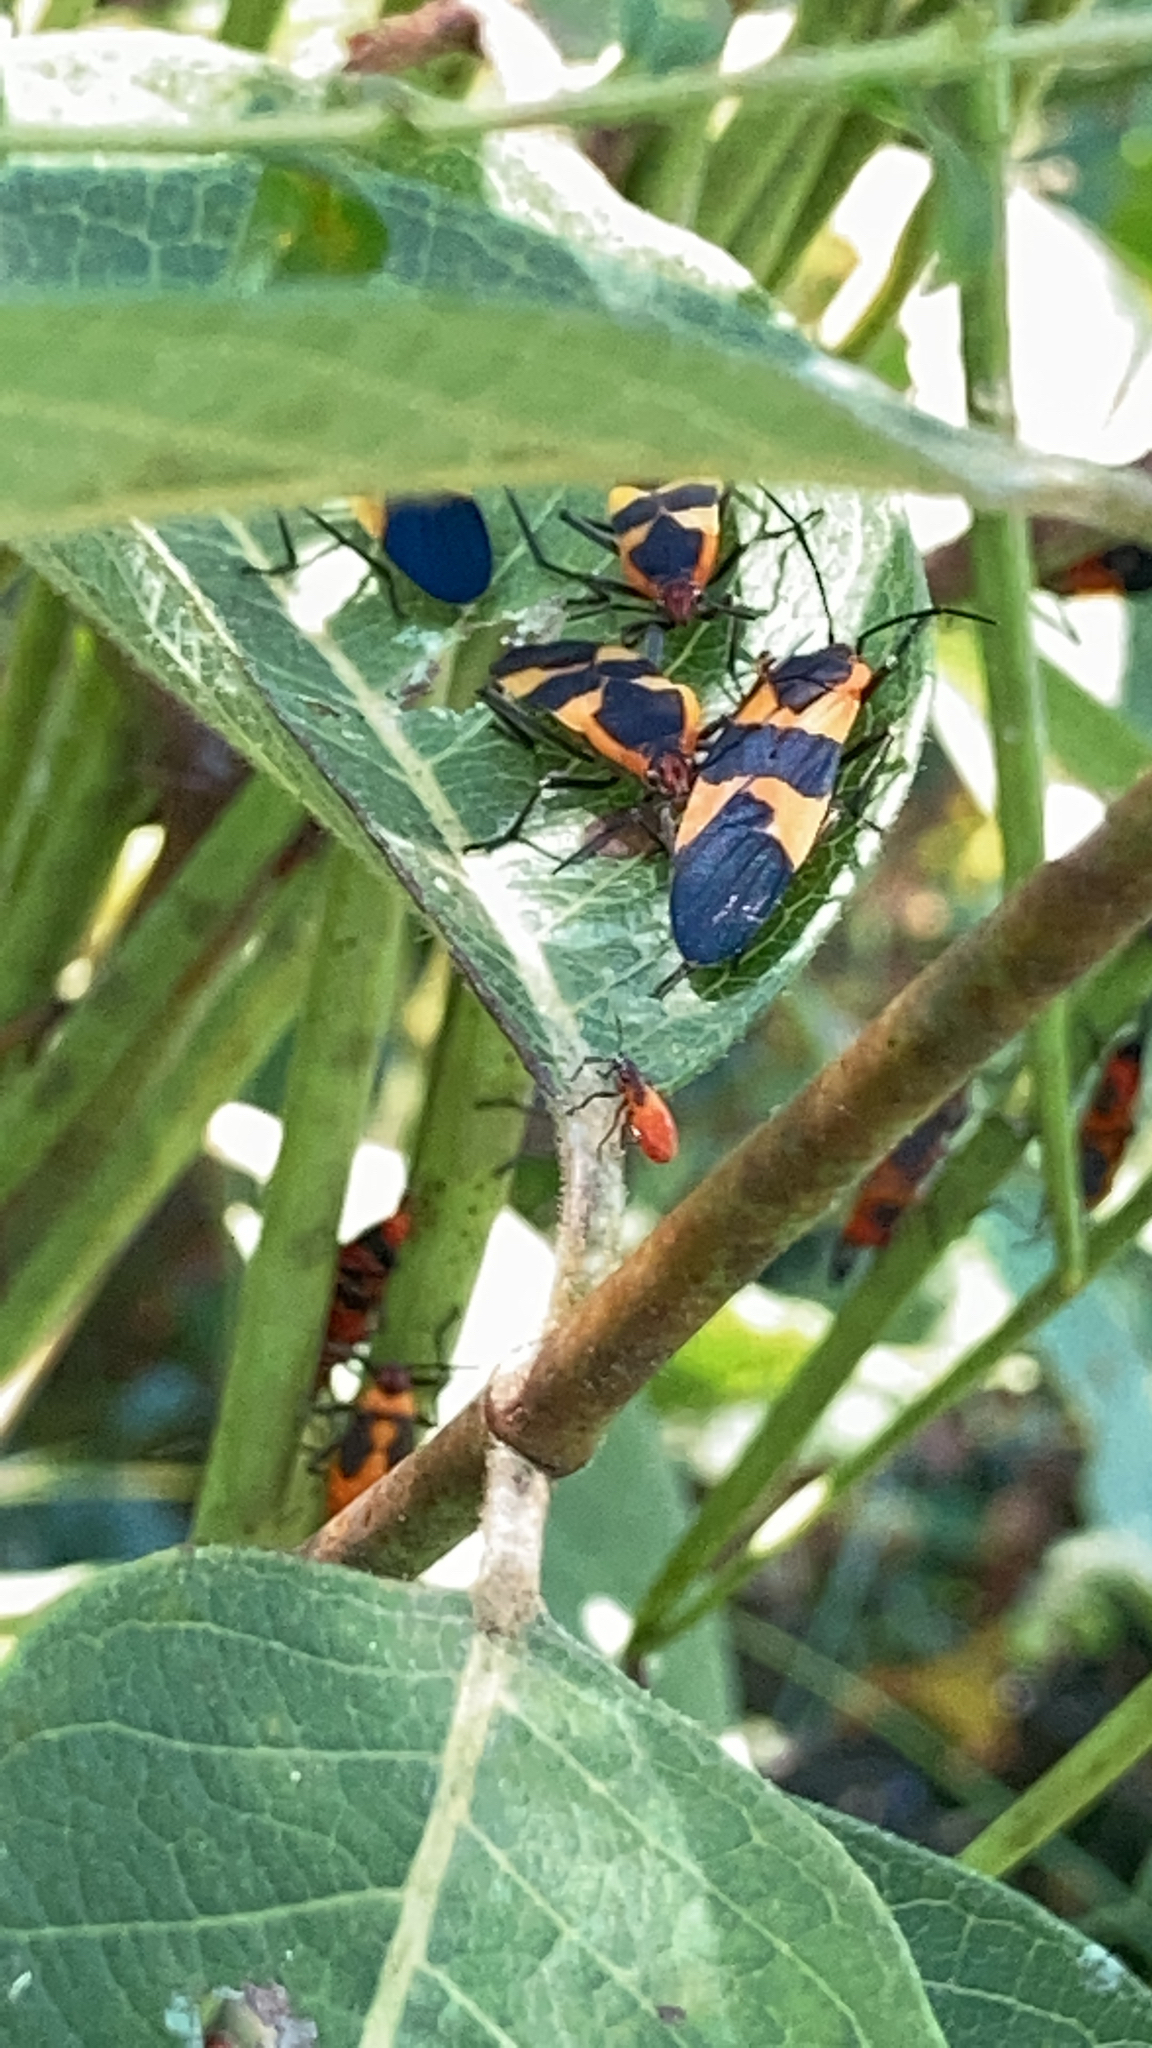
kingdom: Animalia
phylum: Arthropoda
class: Insecta
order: Hemiptera
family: Lygaeidae
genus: Oncopeltus
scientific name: Oncopeltus fasciatus
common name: Large milkweed bug
